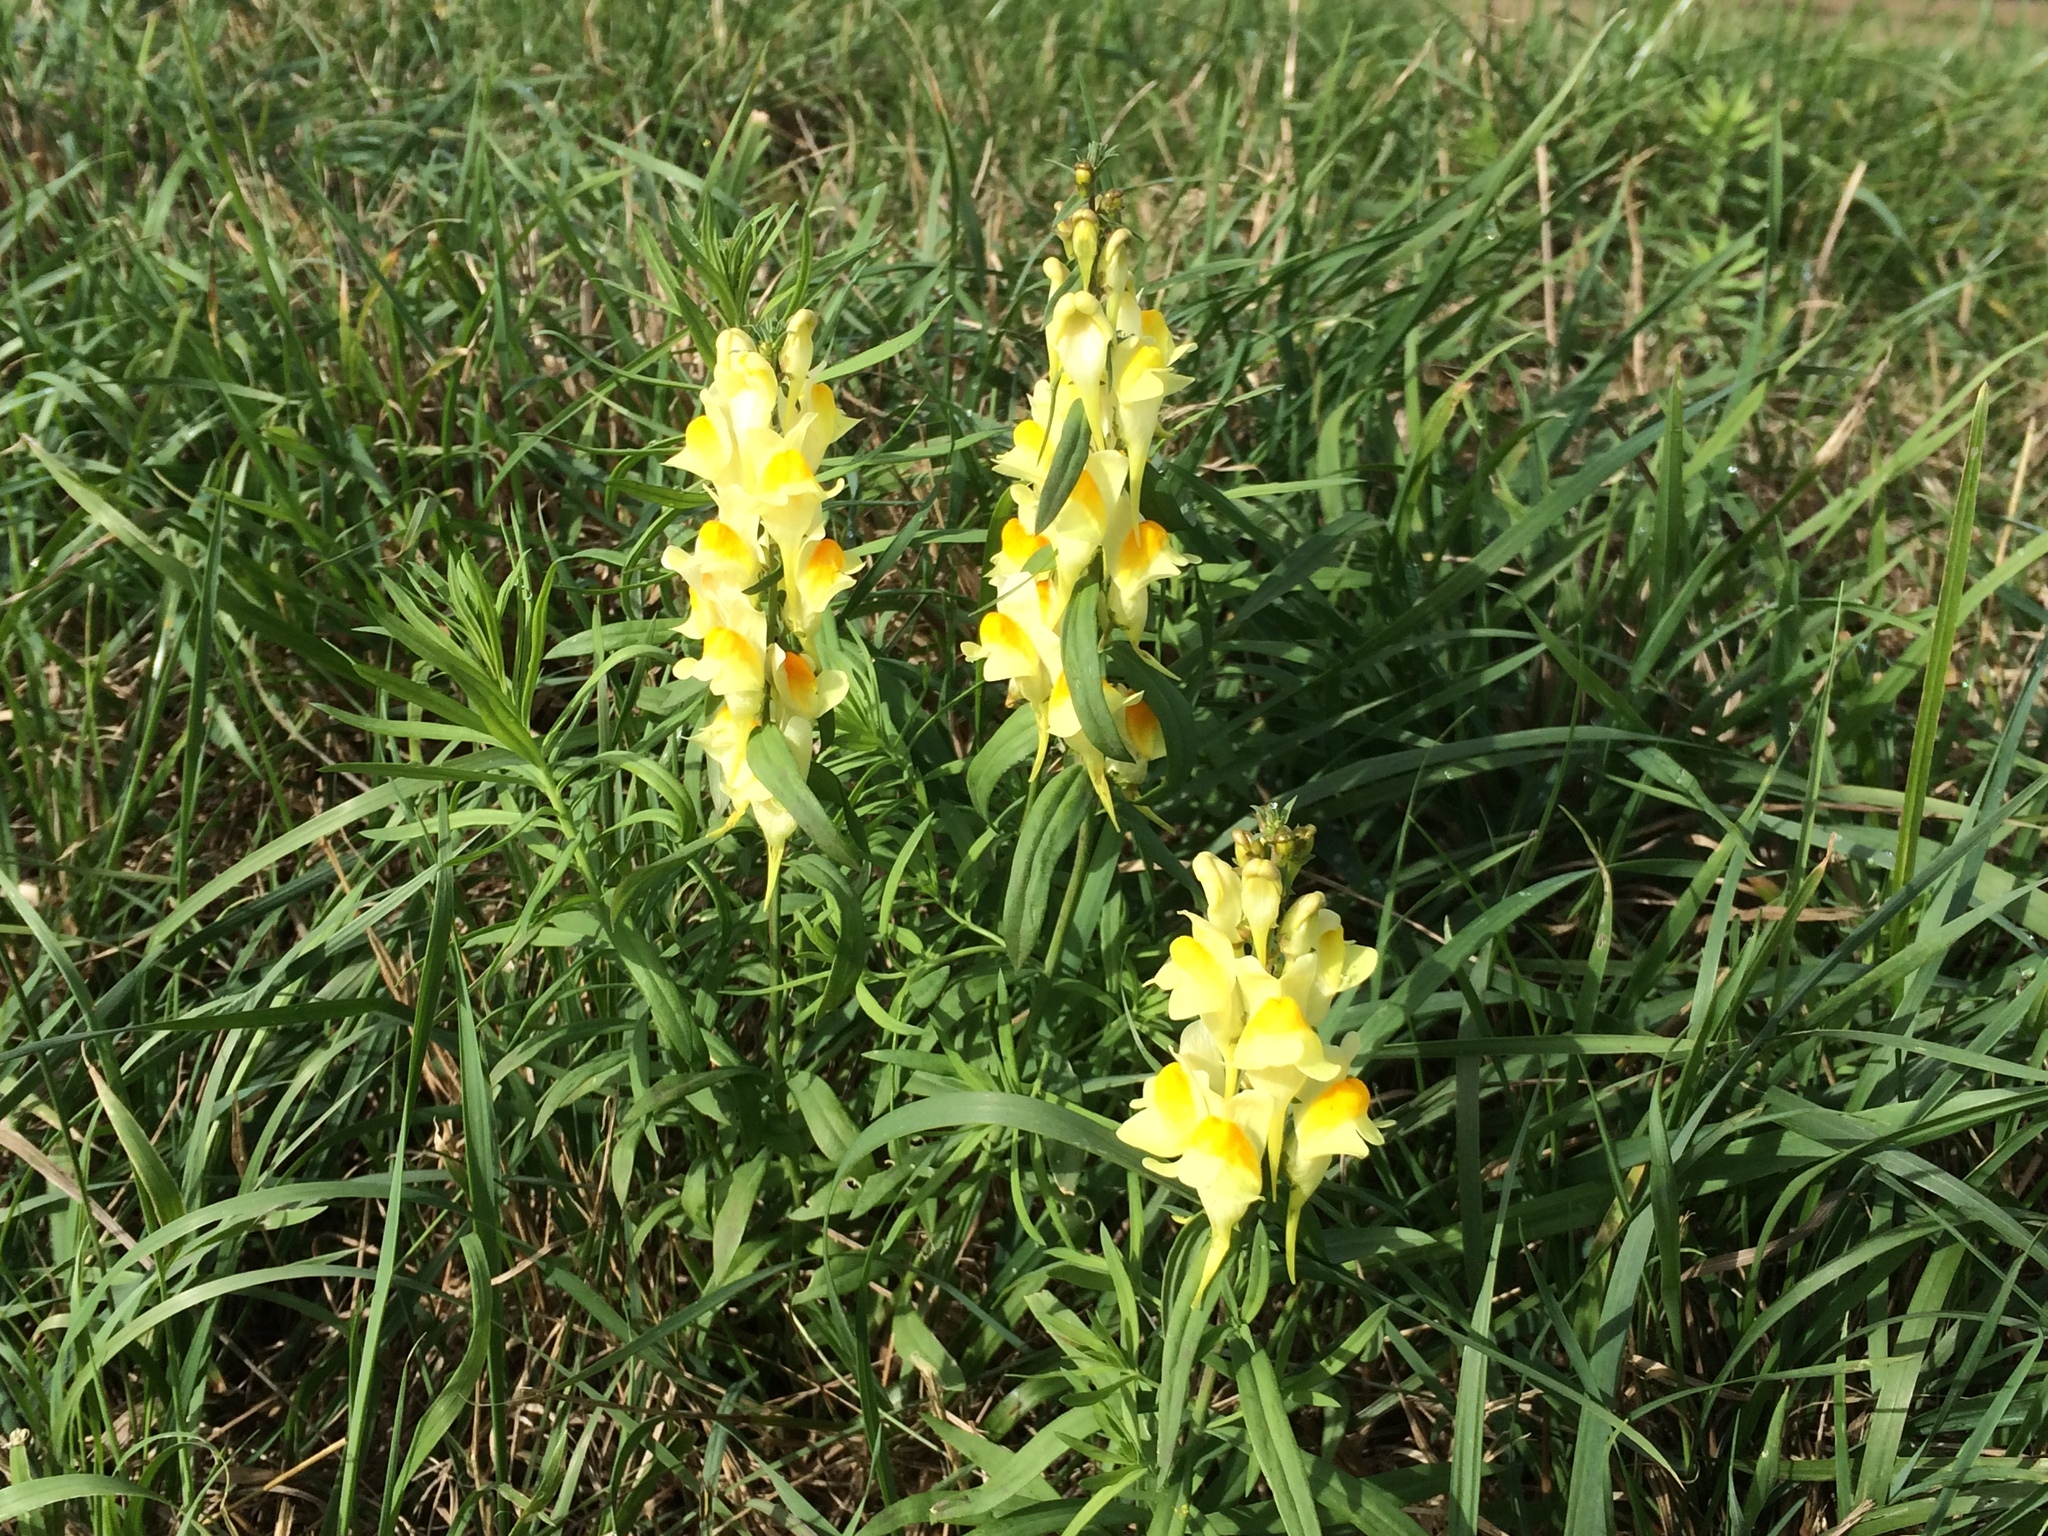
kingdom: Plantae
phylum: Tracheophyta
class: Magnoliopsida
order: Lamiales
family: Plantaginaceae
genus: Linaria
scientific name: Linaria vulgaris
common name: Butter and eggs
